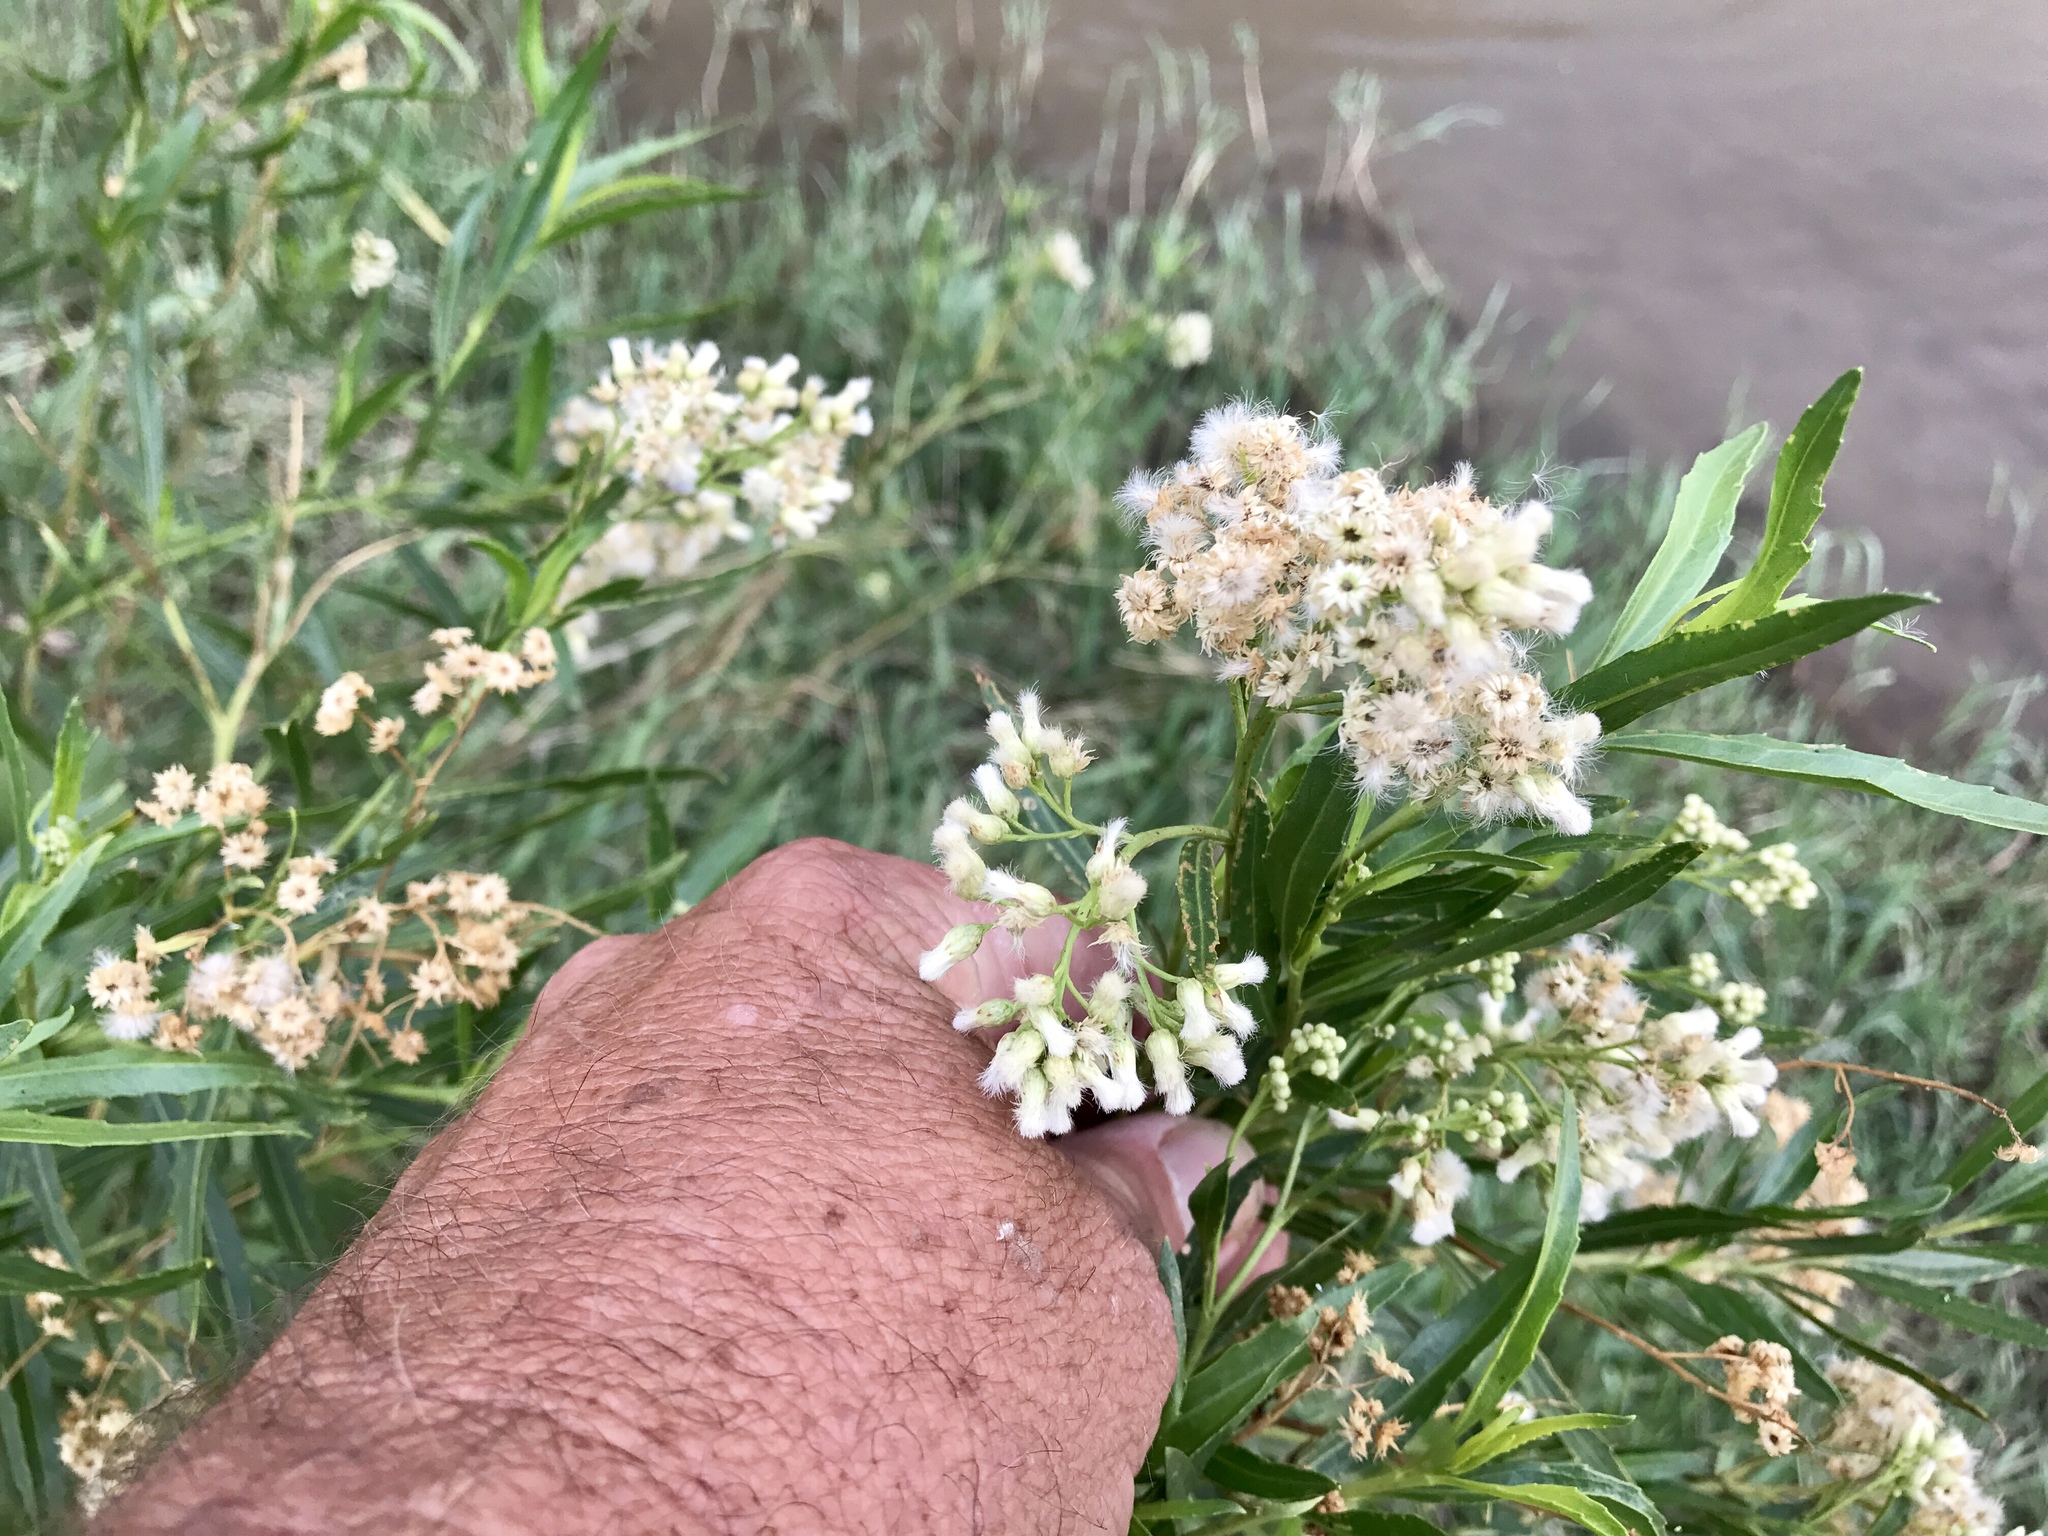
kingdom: Plantae
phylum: Tracheophyta
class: Magnoliopsida
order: Asterales
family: Asteraceae
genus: Baccharis
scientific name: Baccharis salicifolia
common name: Sticky baccharis
